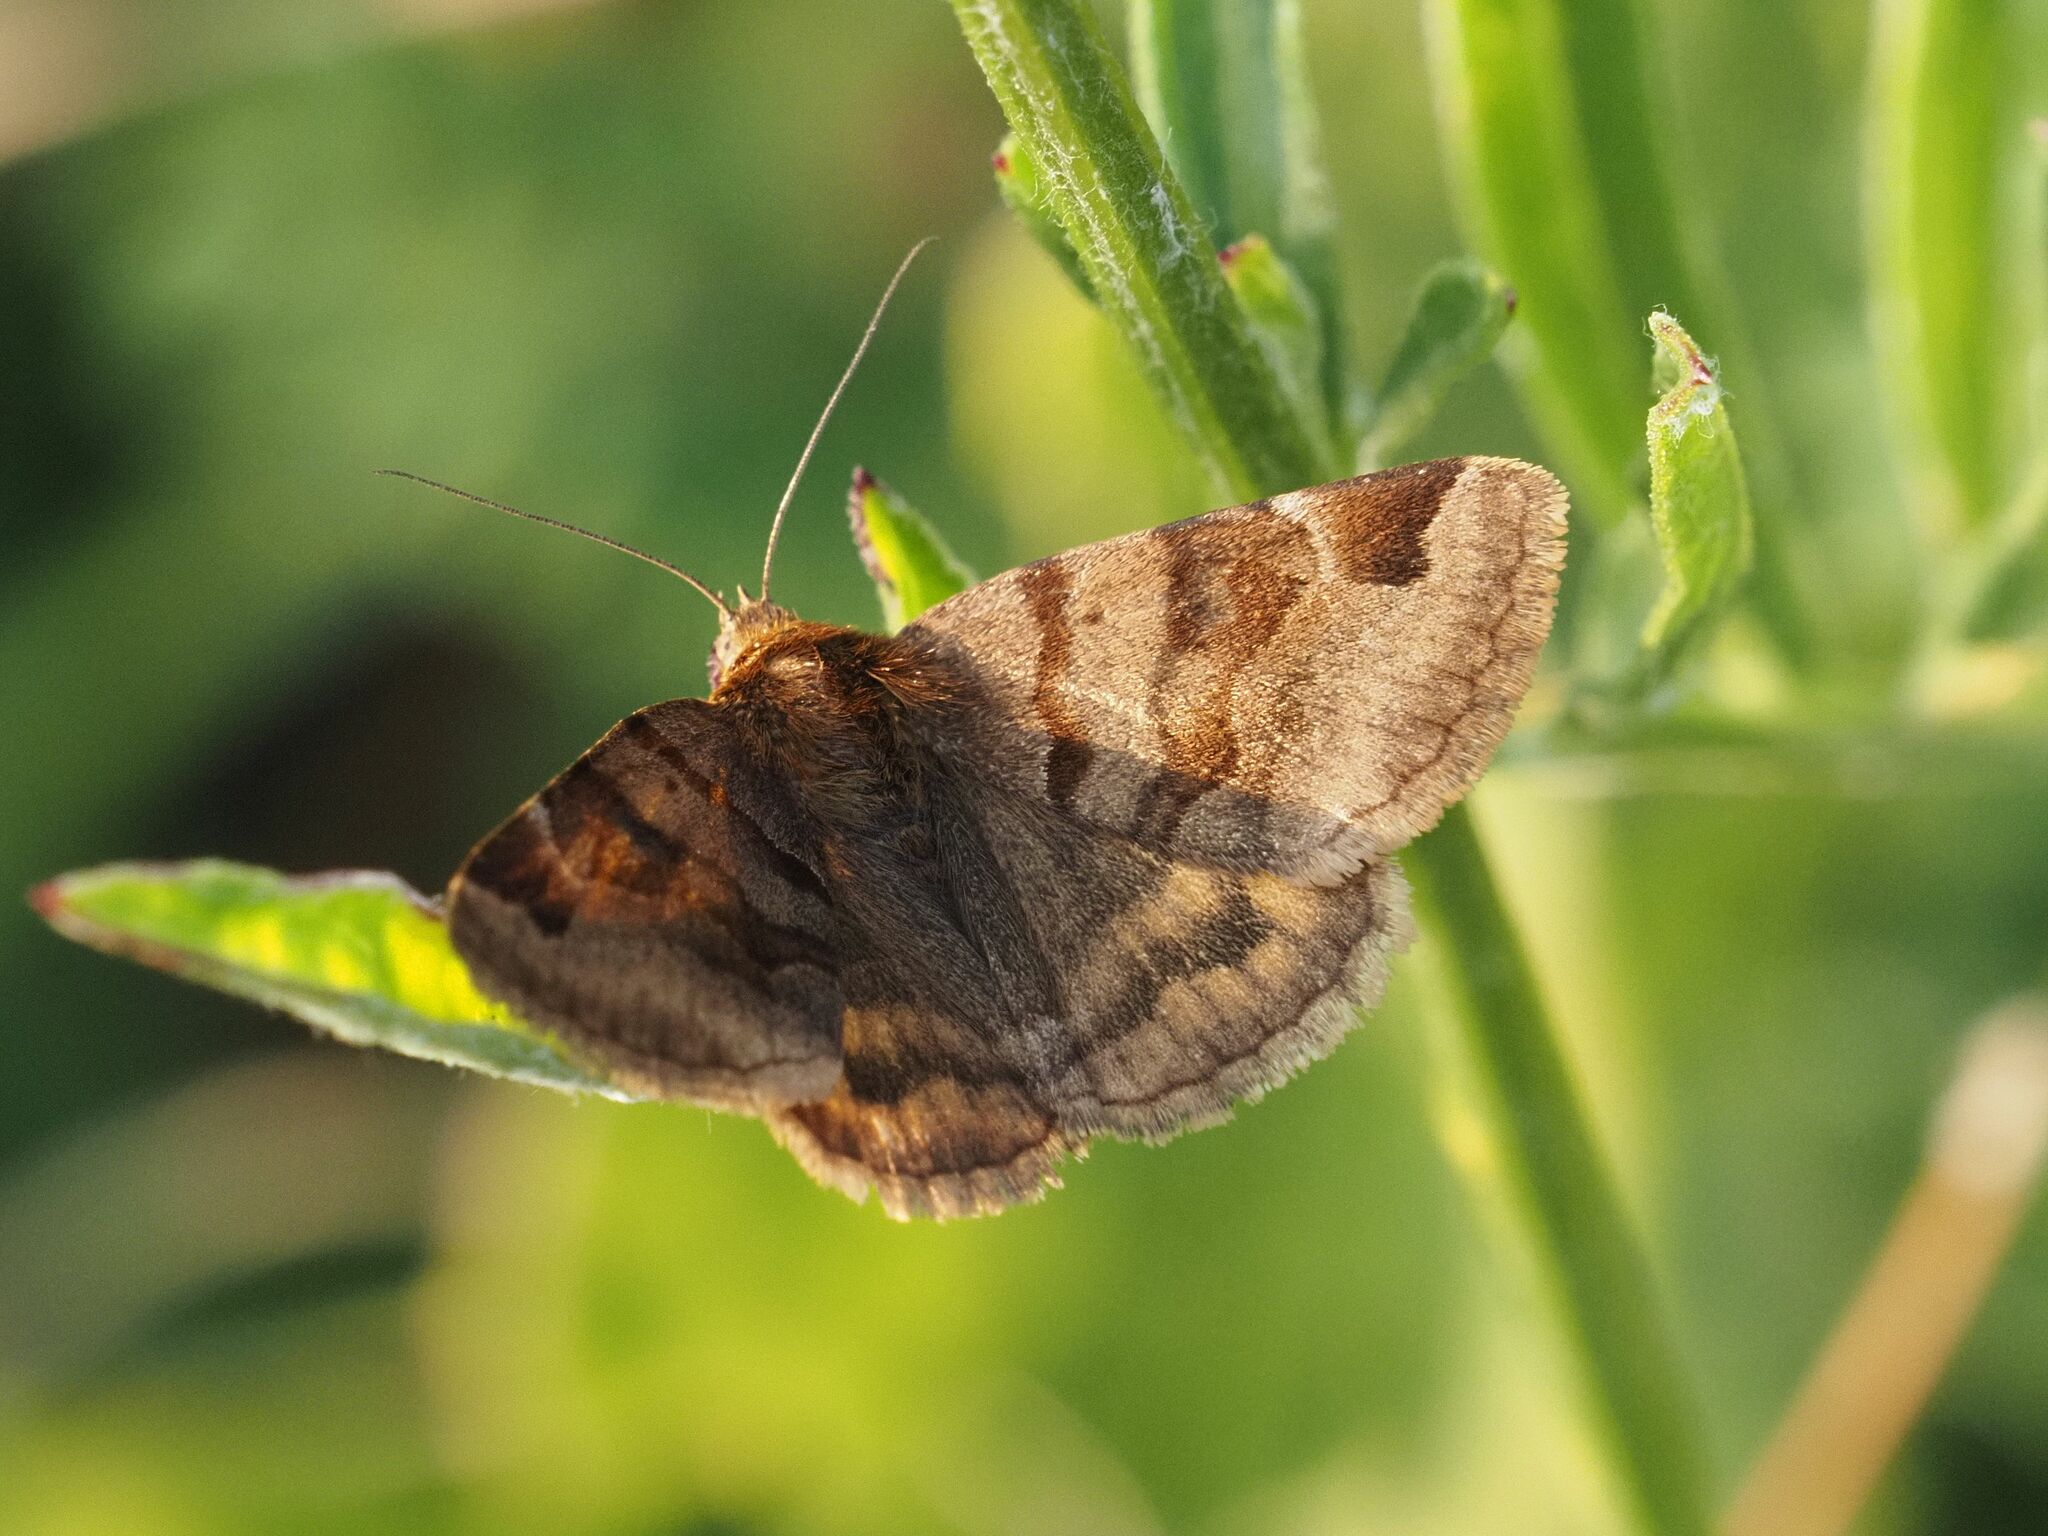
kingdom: Animalia
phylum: Arthropoda
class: Insecta
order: Lepidoptera
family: Erebidae
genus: Euclidia
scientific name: Euclidia glyphica
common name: Burnet companion
